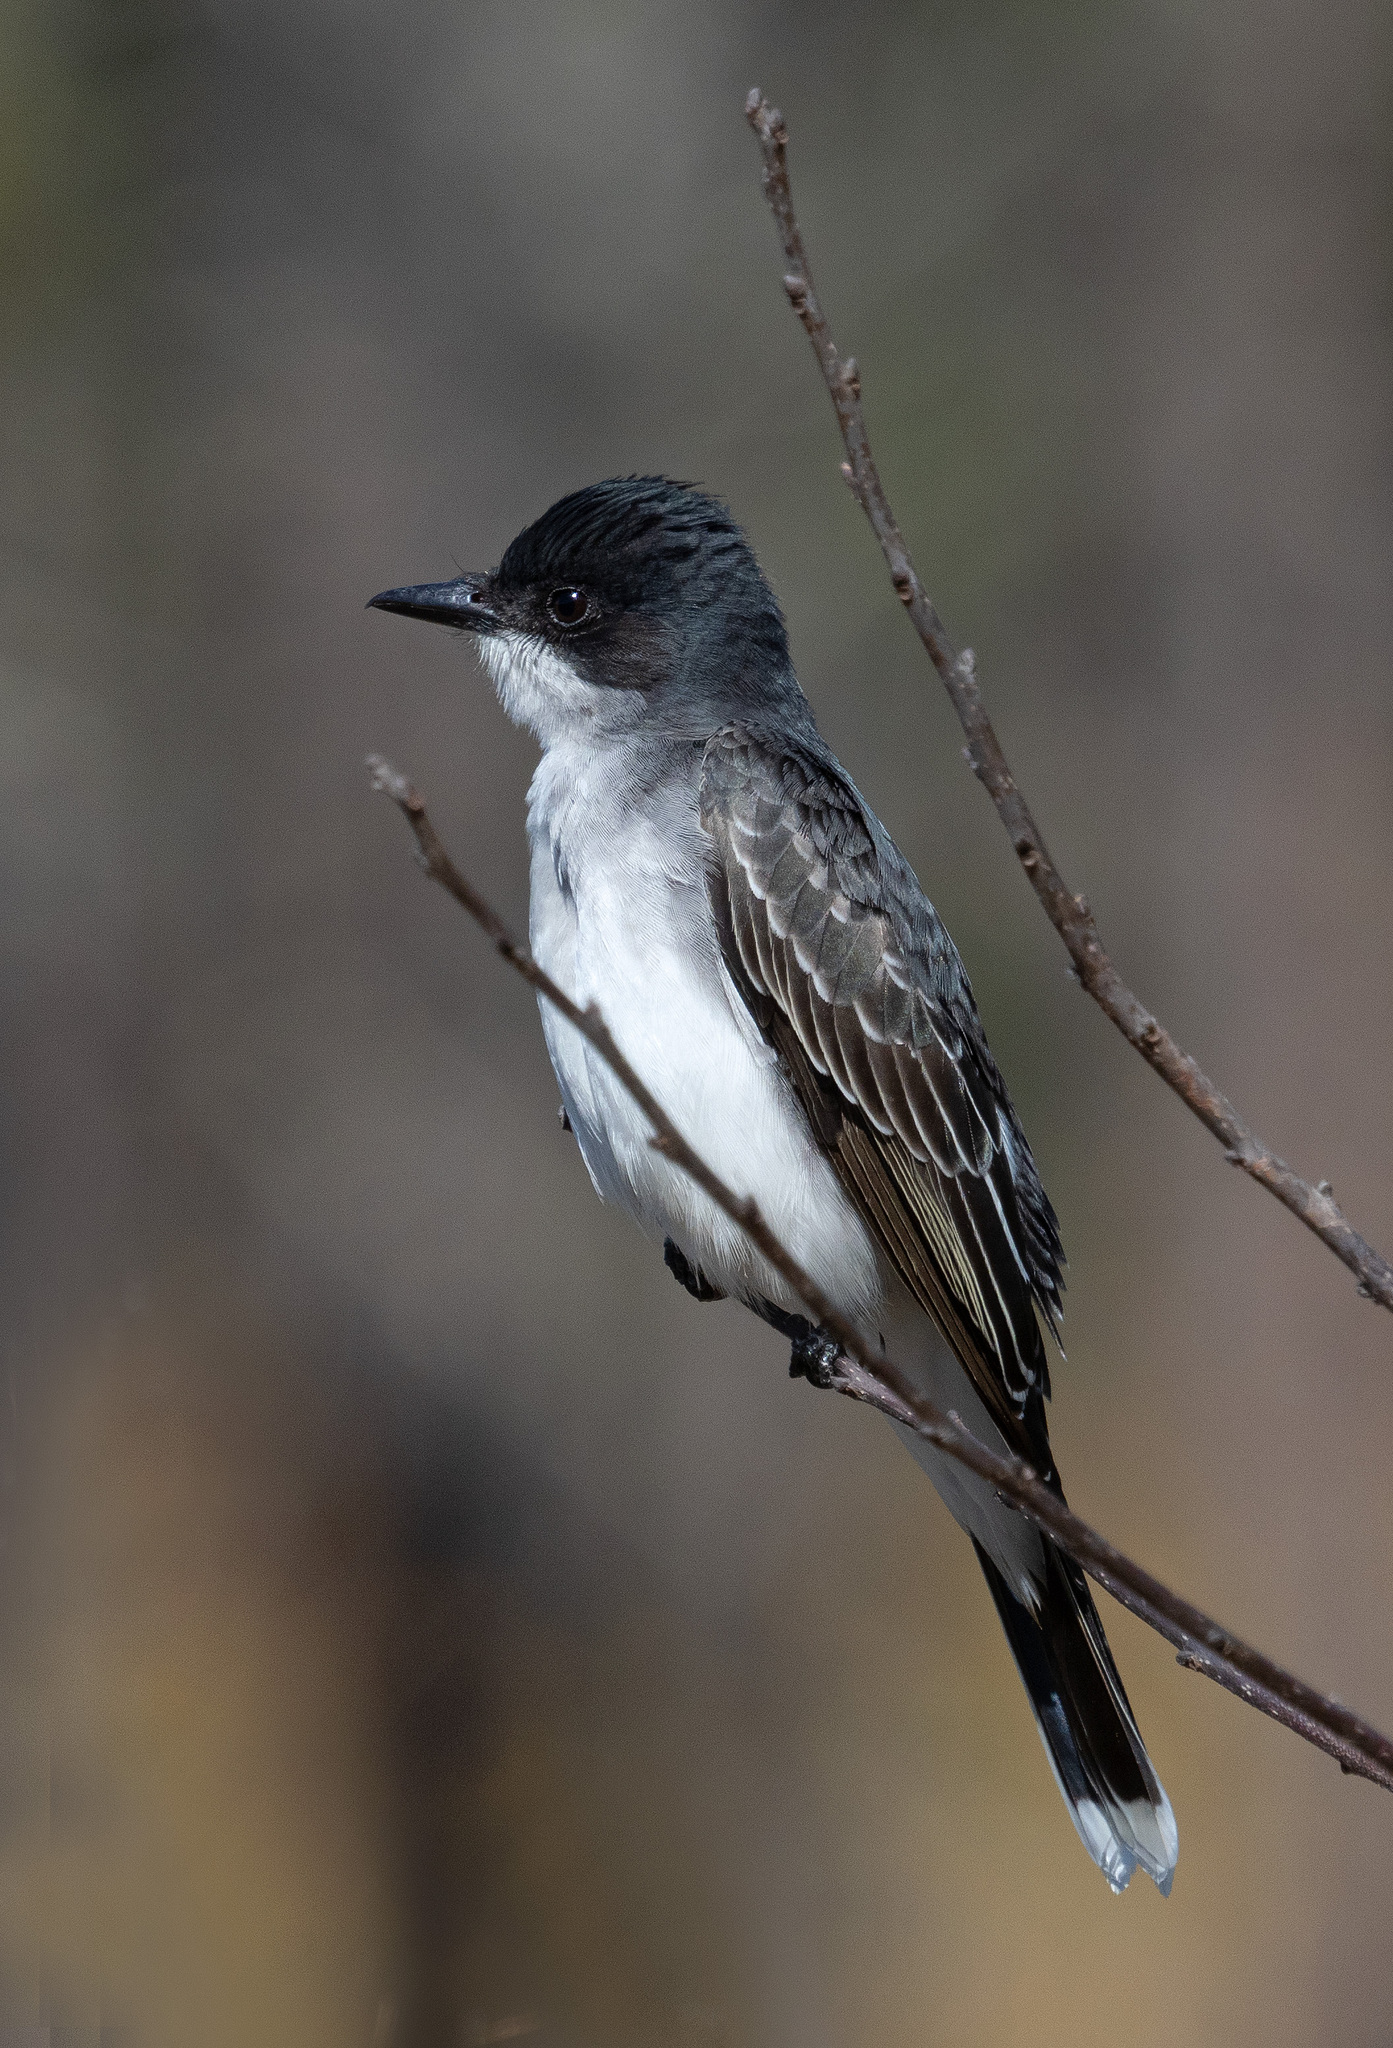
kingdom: Animalia
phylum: Chordata
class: Aves
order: Passeriformes
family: Tyrannidae
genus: Tyrannus
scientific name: Tyrannus tyrannus
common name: Eastern kingbird
